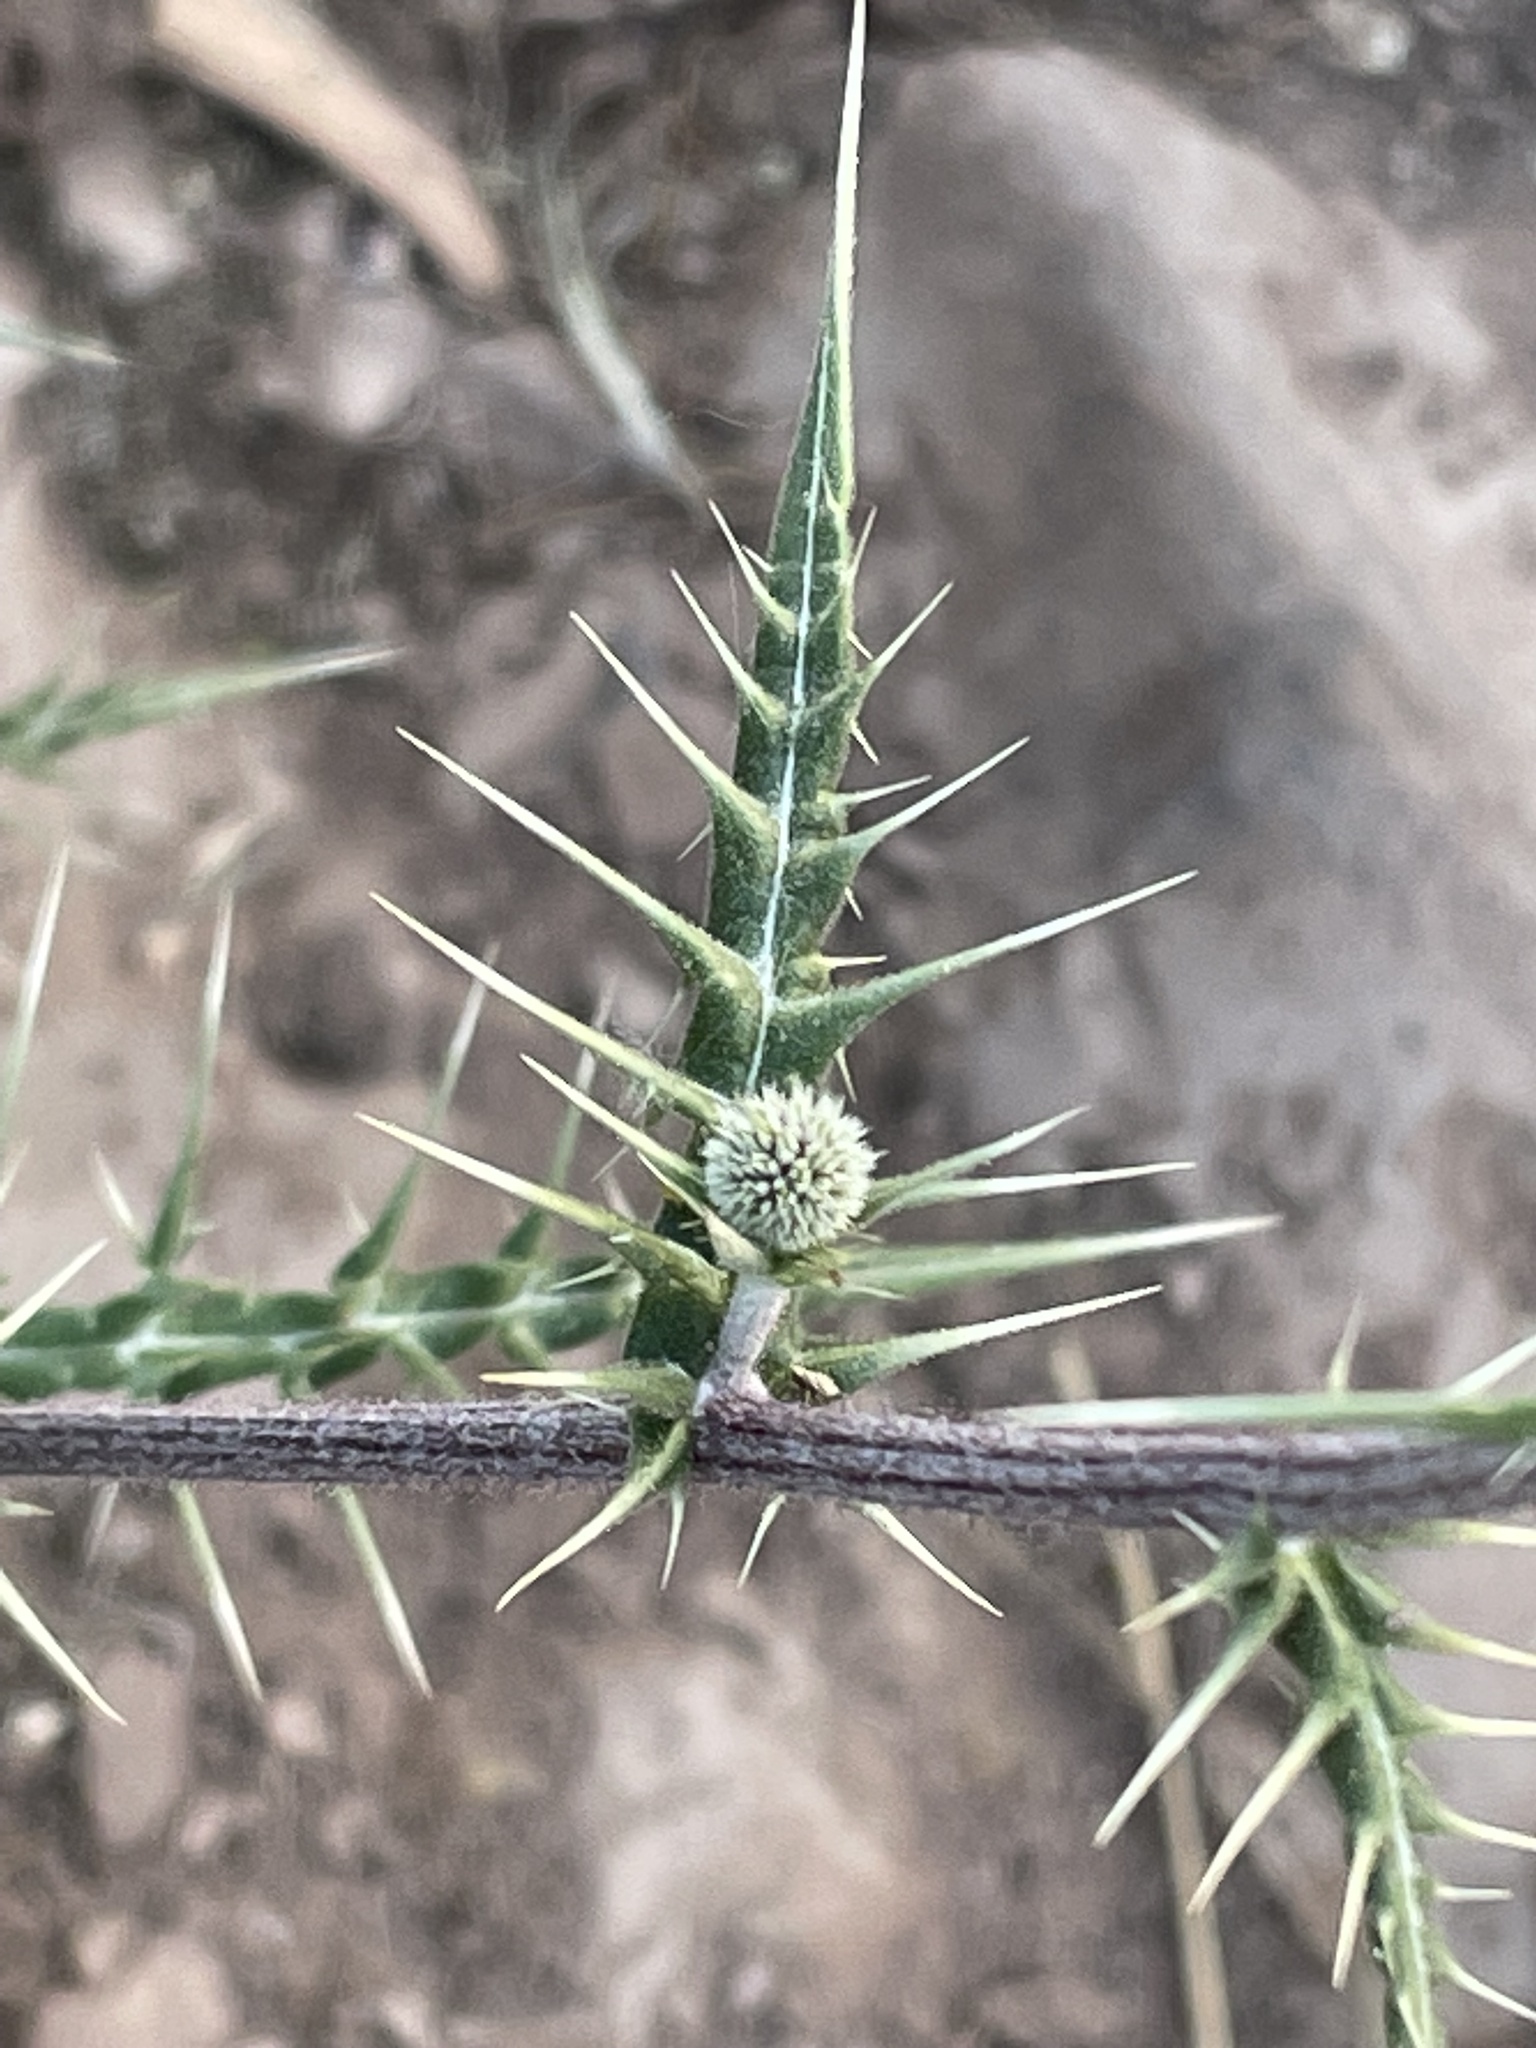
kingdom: Plantae
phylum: Tracheophyta
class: Magnoliopsida
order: Asterales
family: Asteraceae
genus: Echinops
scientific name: Echinops spinosissimus
